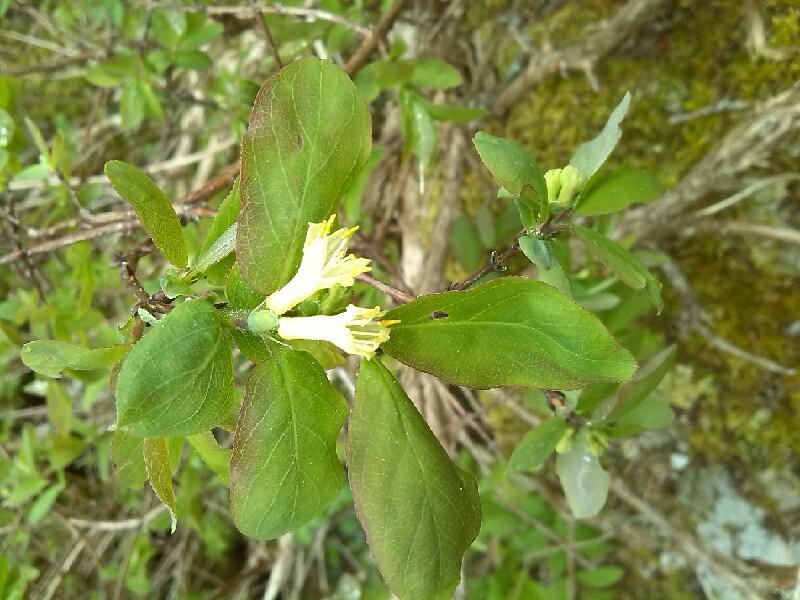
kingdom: Plantae
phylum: Tracheophyta
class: Magnoliopsida
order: Dipsacales
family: Caprifoliaceae
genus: Lonicera
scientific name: Lonicera caerulea
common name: Blue honeysuckle
